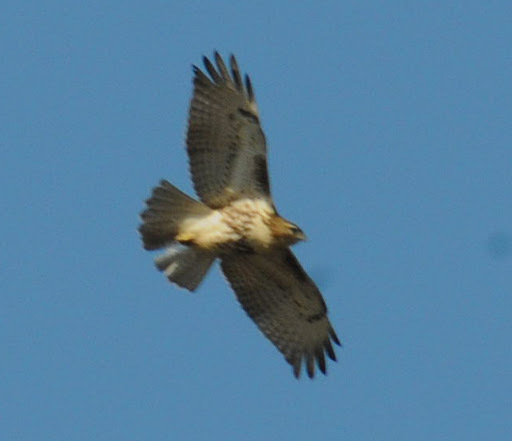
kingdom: Animalia
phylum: Chordata
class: Aves
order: Accipitriformes
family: Accipitridae
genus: Buteo
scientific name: Buteo jamaicensis
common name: Red-tailed hawk
